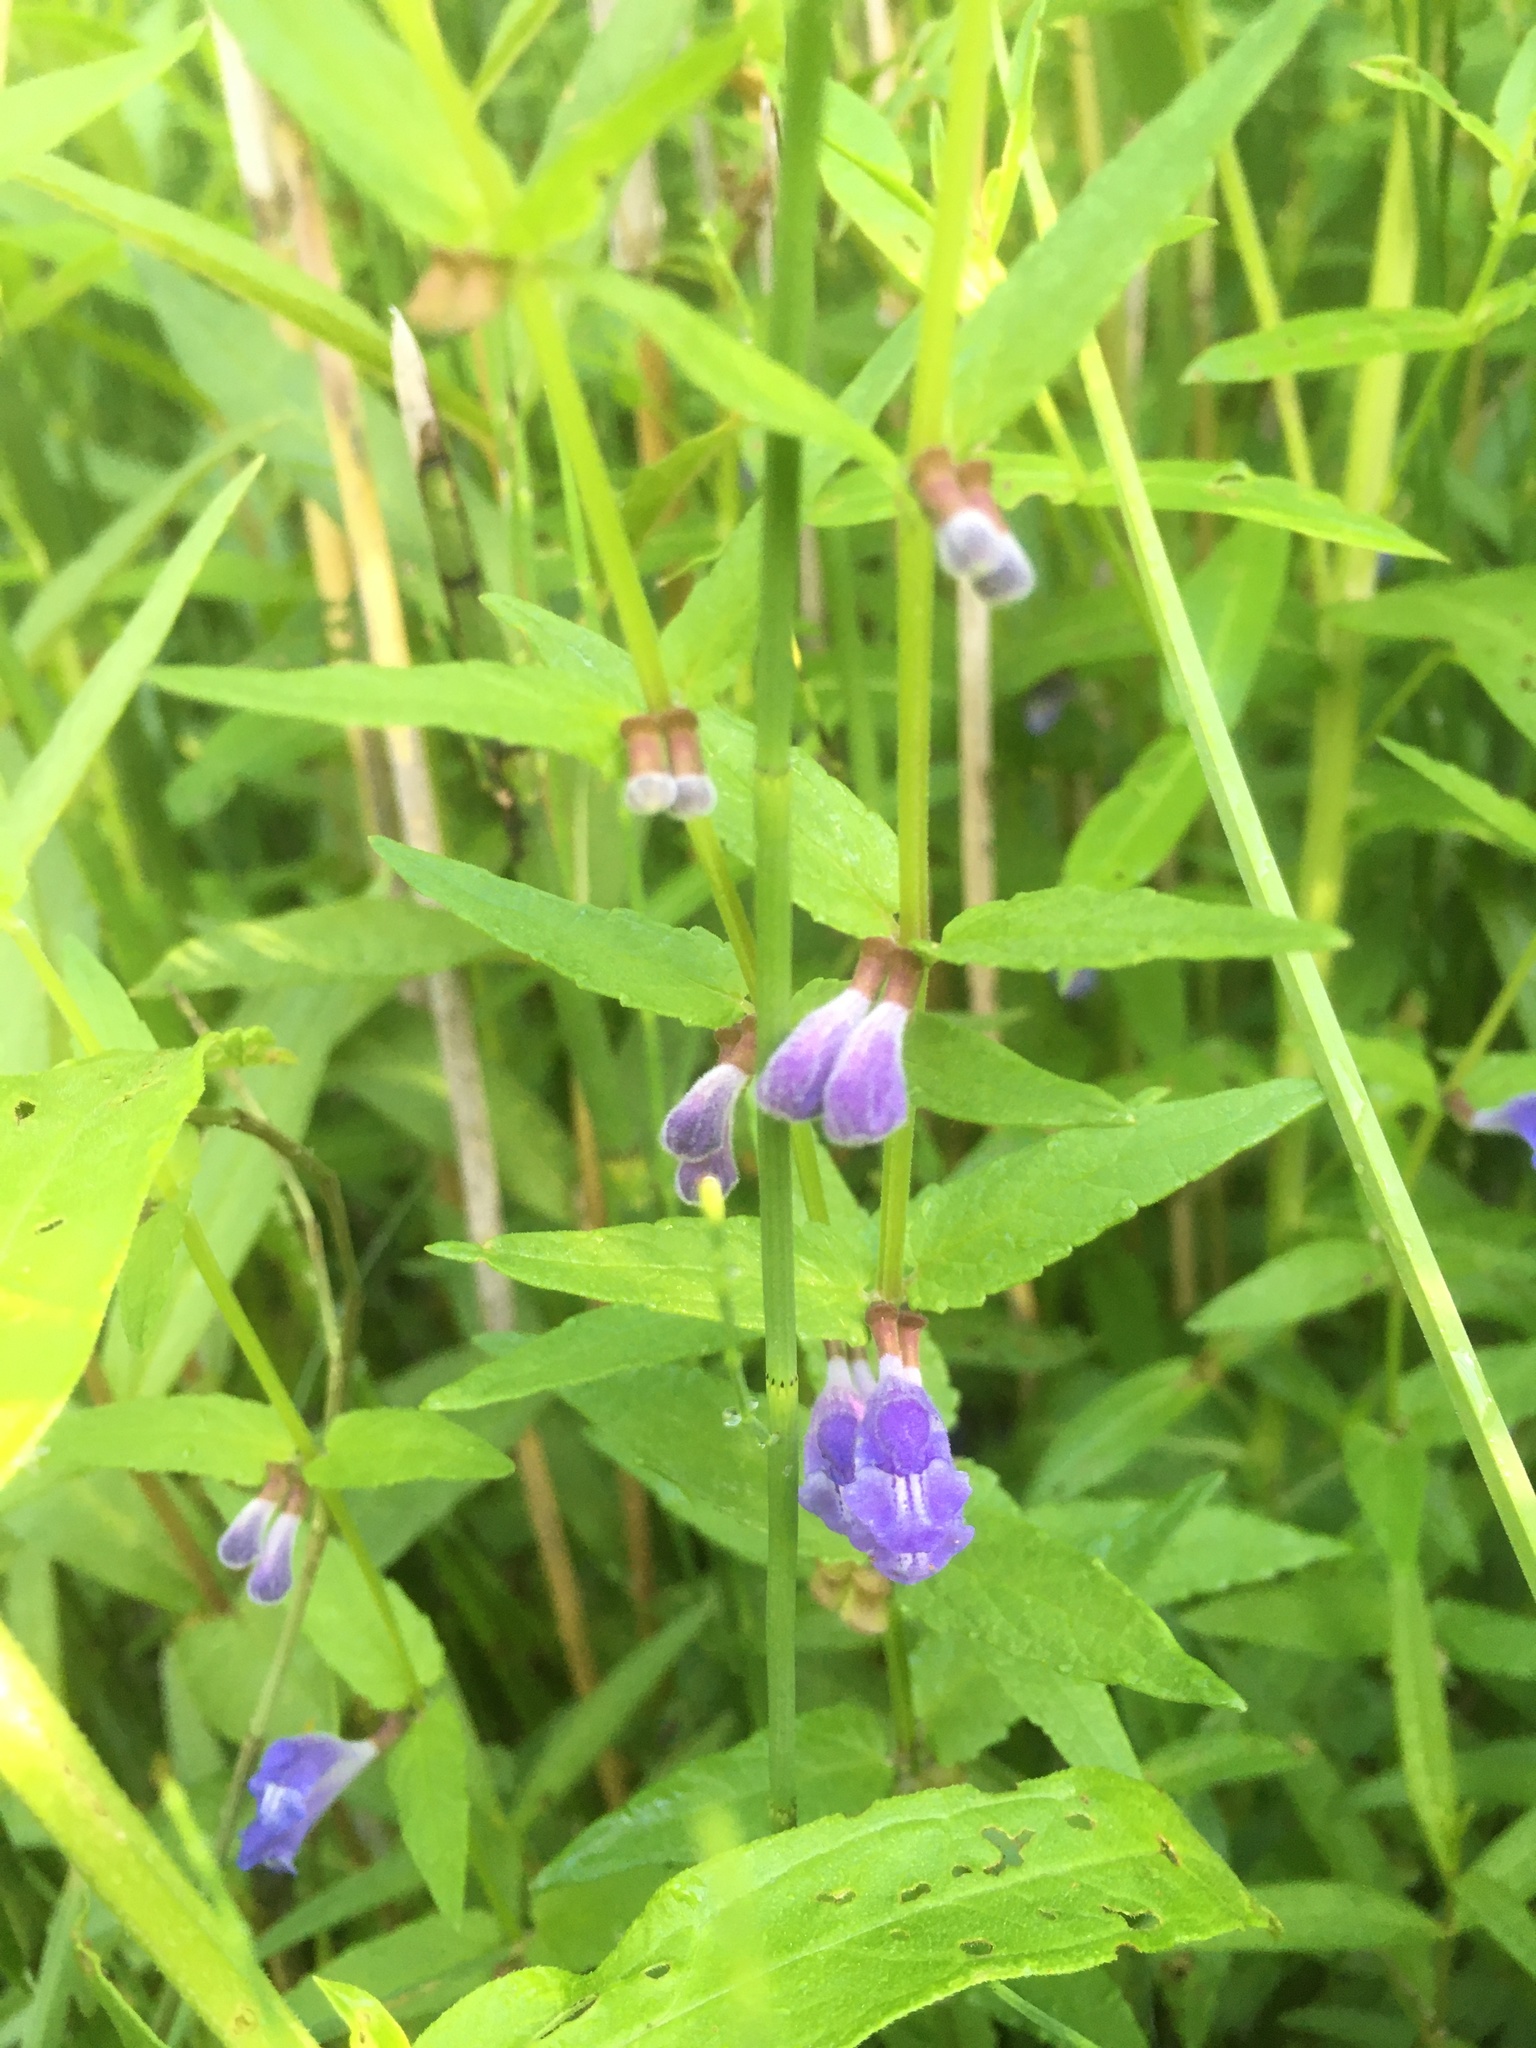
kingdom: Plantae
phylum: Tracheophyta
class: Magnoliopsida
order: Lamiales
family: Lamiaceae
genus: Scutellaria
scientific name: Scutellaria galericulata
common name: Skullcap
